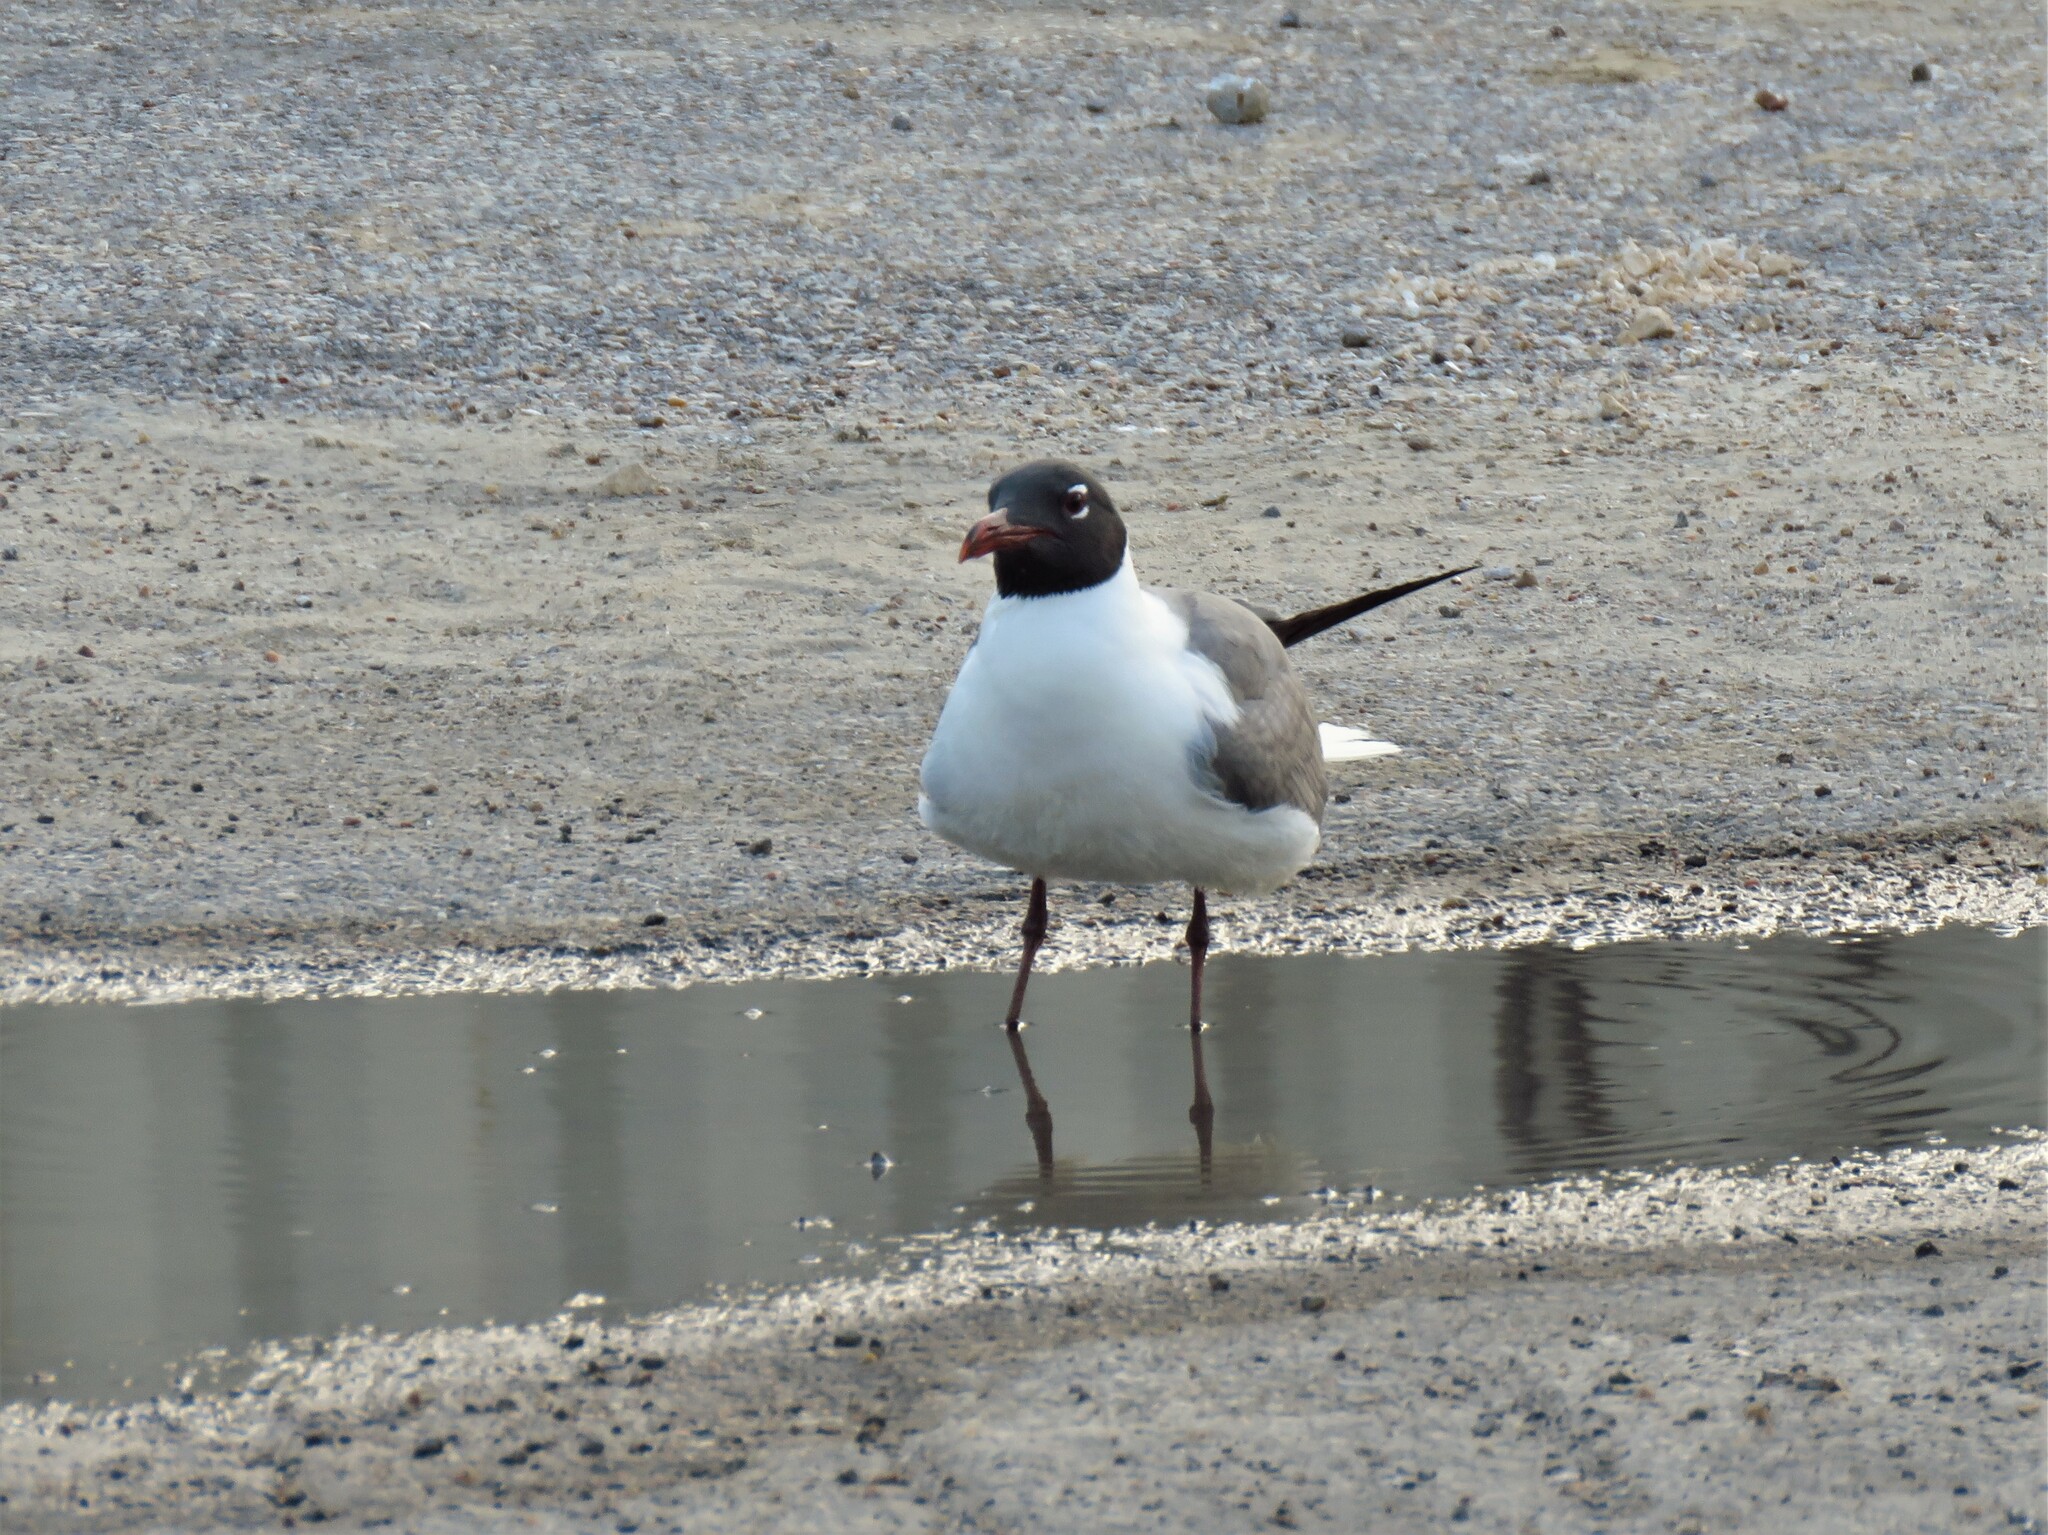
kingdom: Animalia
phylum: Chordata
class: Aves
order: Charadriiformes
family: Laridae
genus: Leucophaeus
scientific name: Leucophaeus atricilla
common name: Laughing gull
